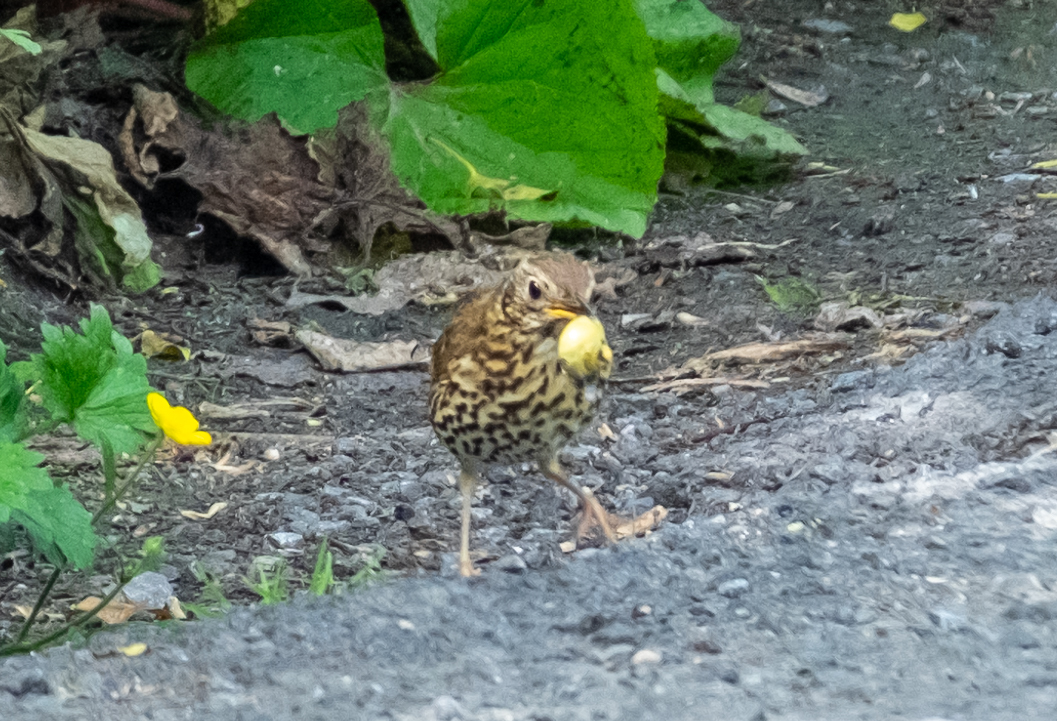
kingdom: Animalia
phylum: Chordata
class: Aves
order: Passeriformes
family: Turdidae
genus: Turdus
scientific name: Turdus philomelos
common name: Song thrush
